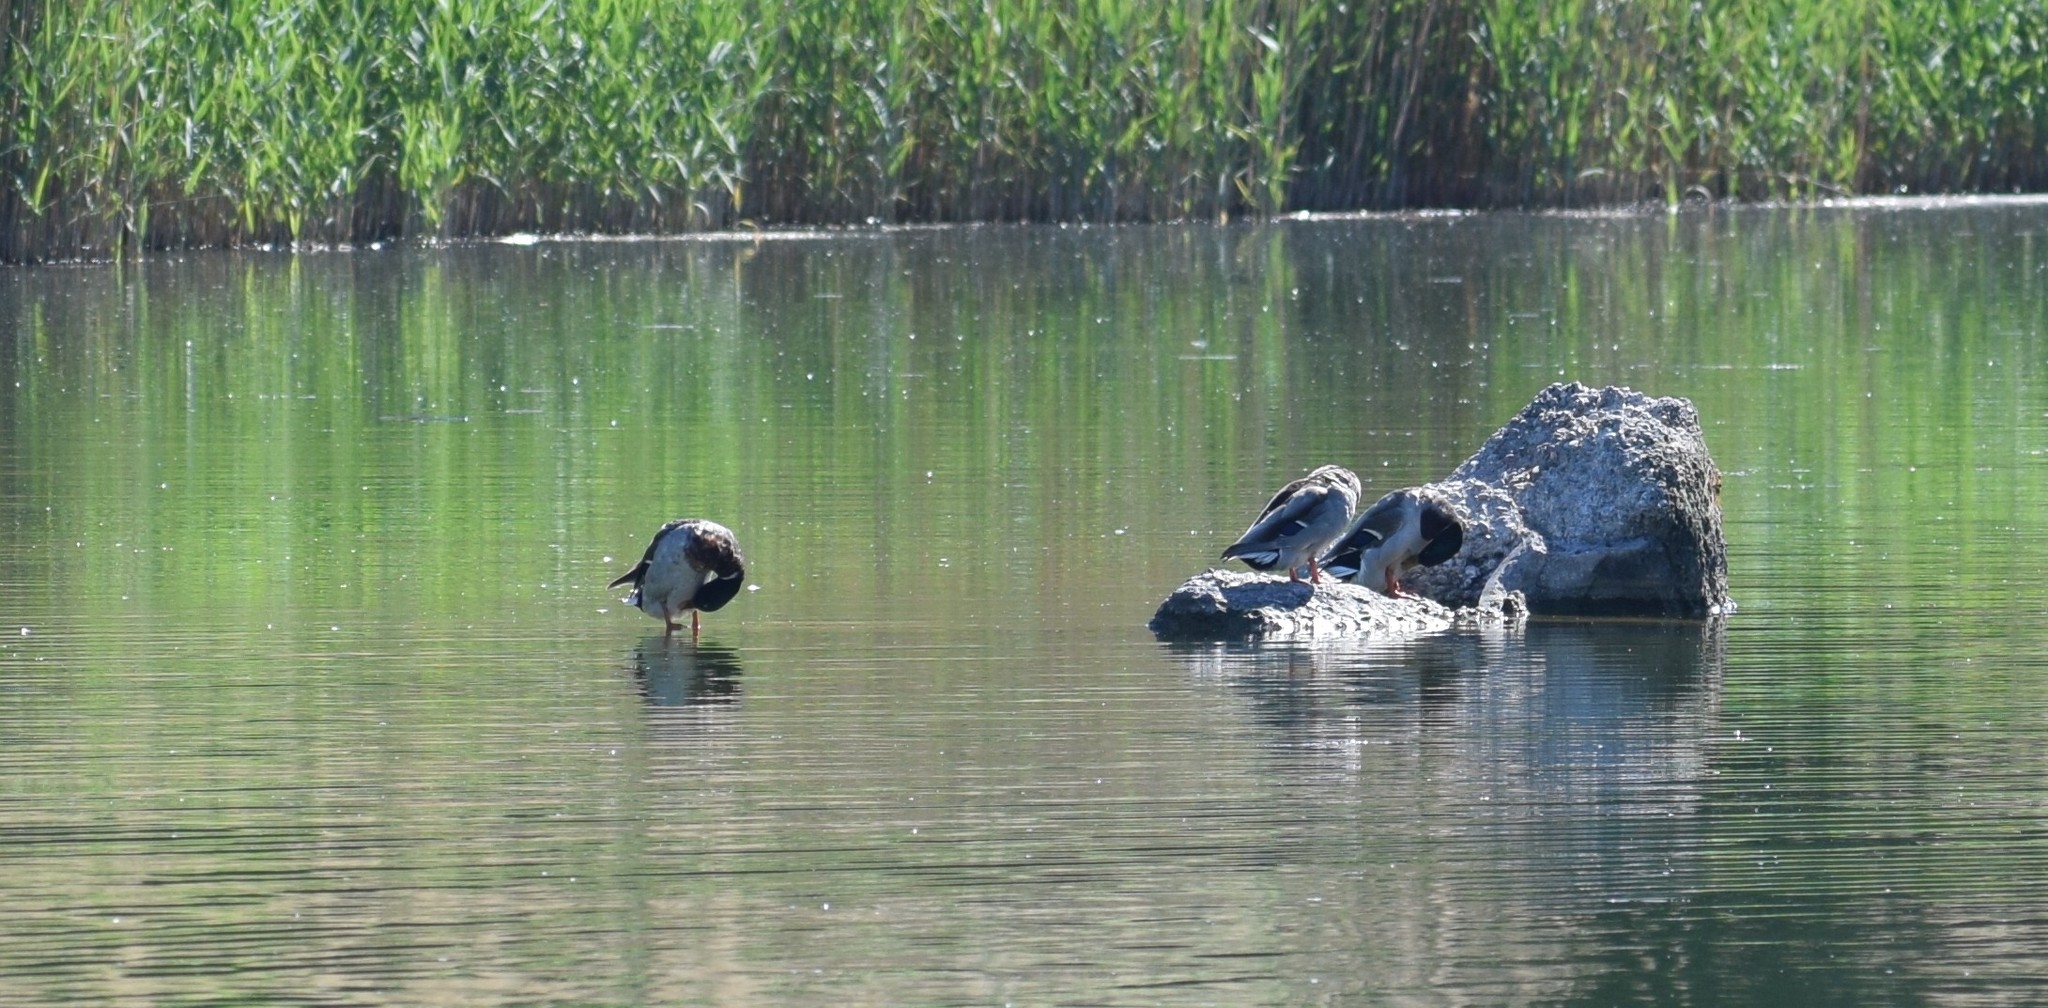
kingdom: Animalia
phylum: Chordata
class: Aves
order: Anseriformes
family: Anatidae
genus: Anas
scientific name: Anas platyrhynchos
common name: Mallard
